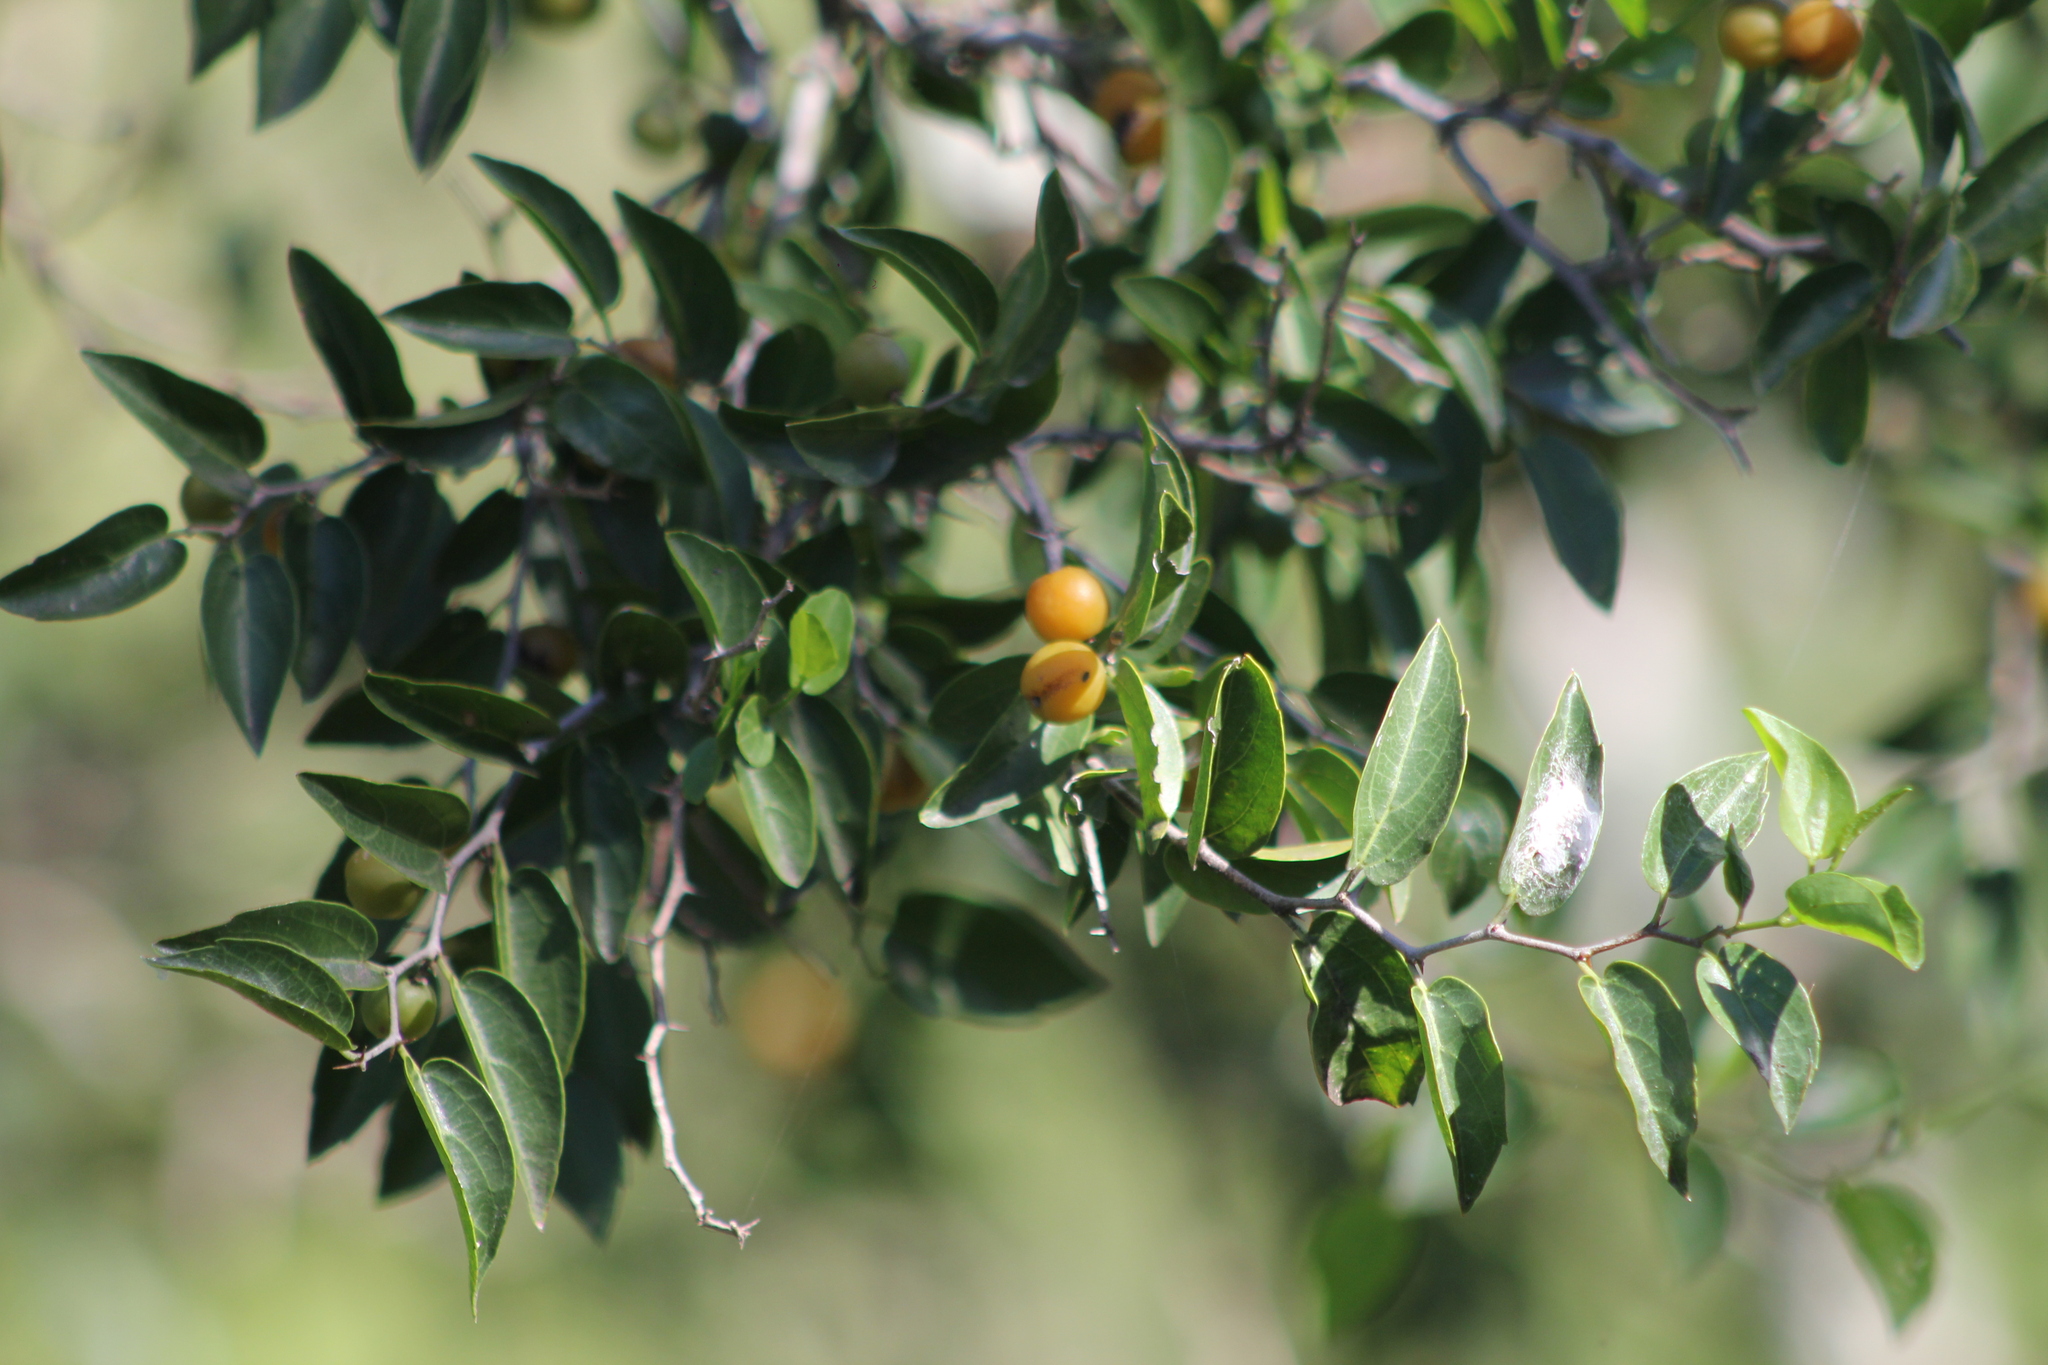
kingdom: Plantae
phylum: Tracheophyta
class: Magnoliopsida
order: Rosales
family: Cannabaceae
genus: Celtis
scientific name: Celtis tala
